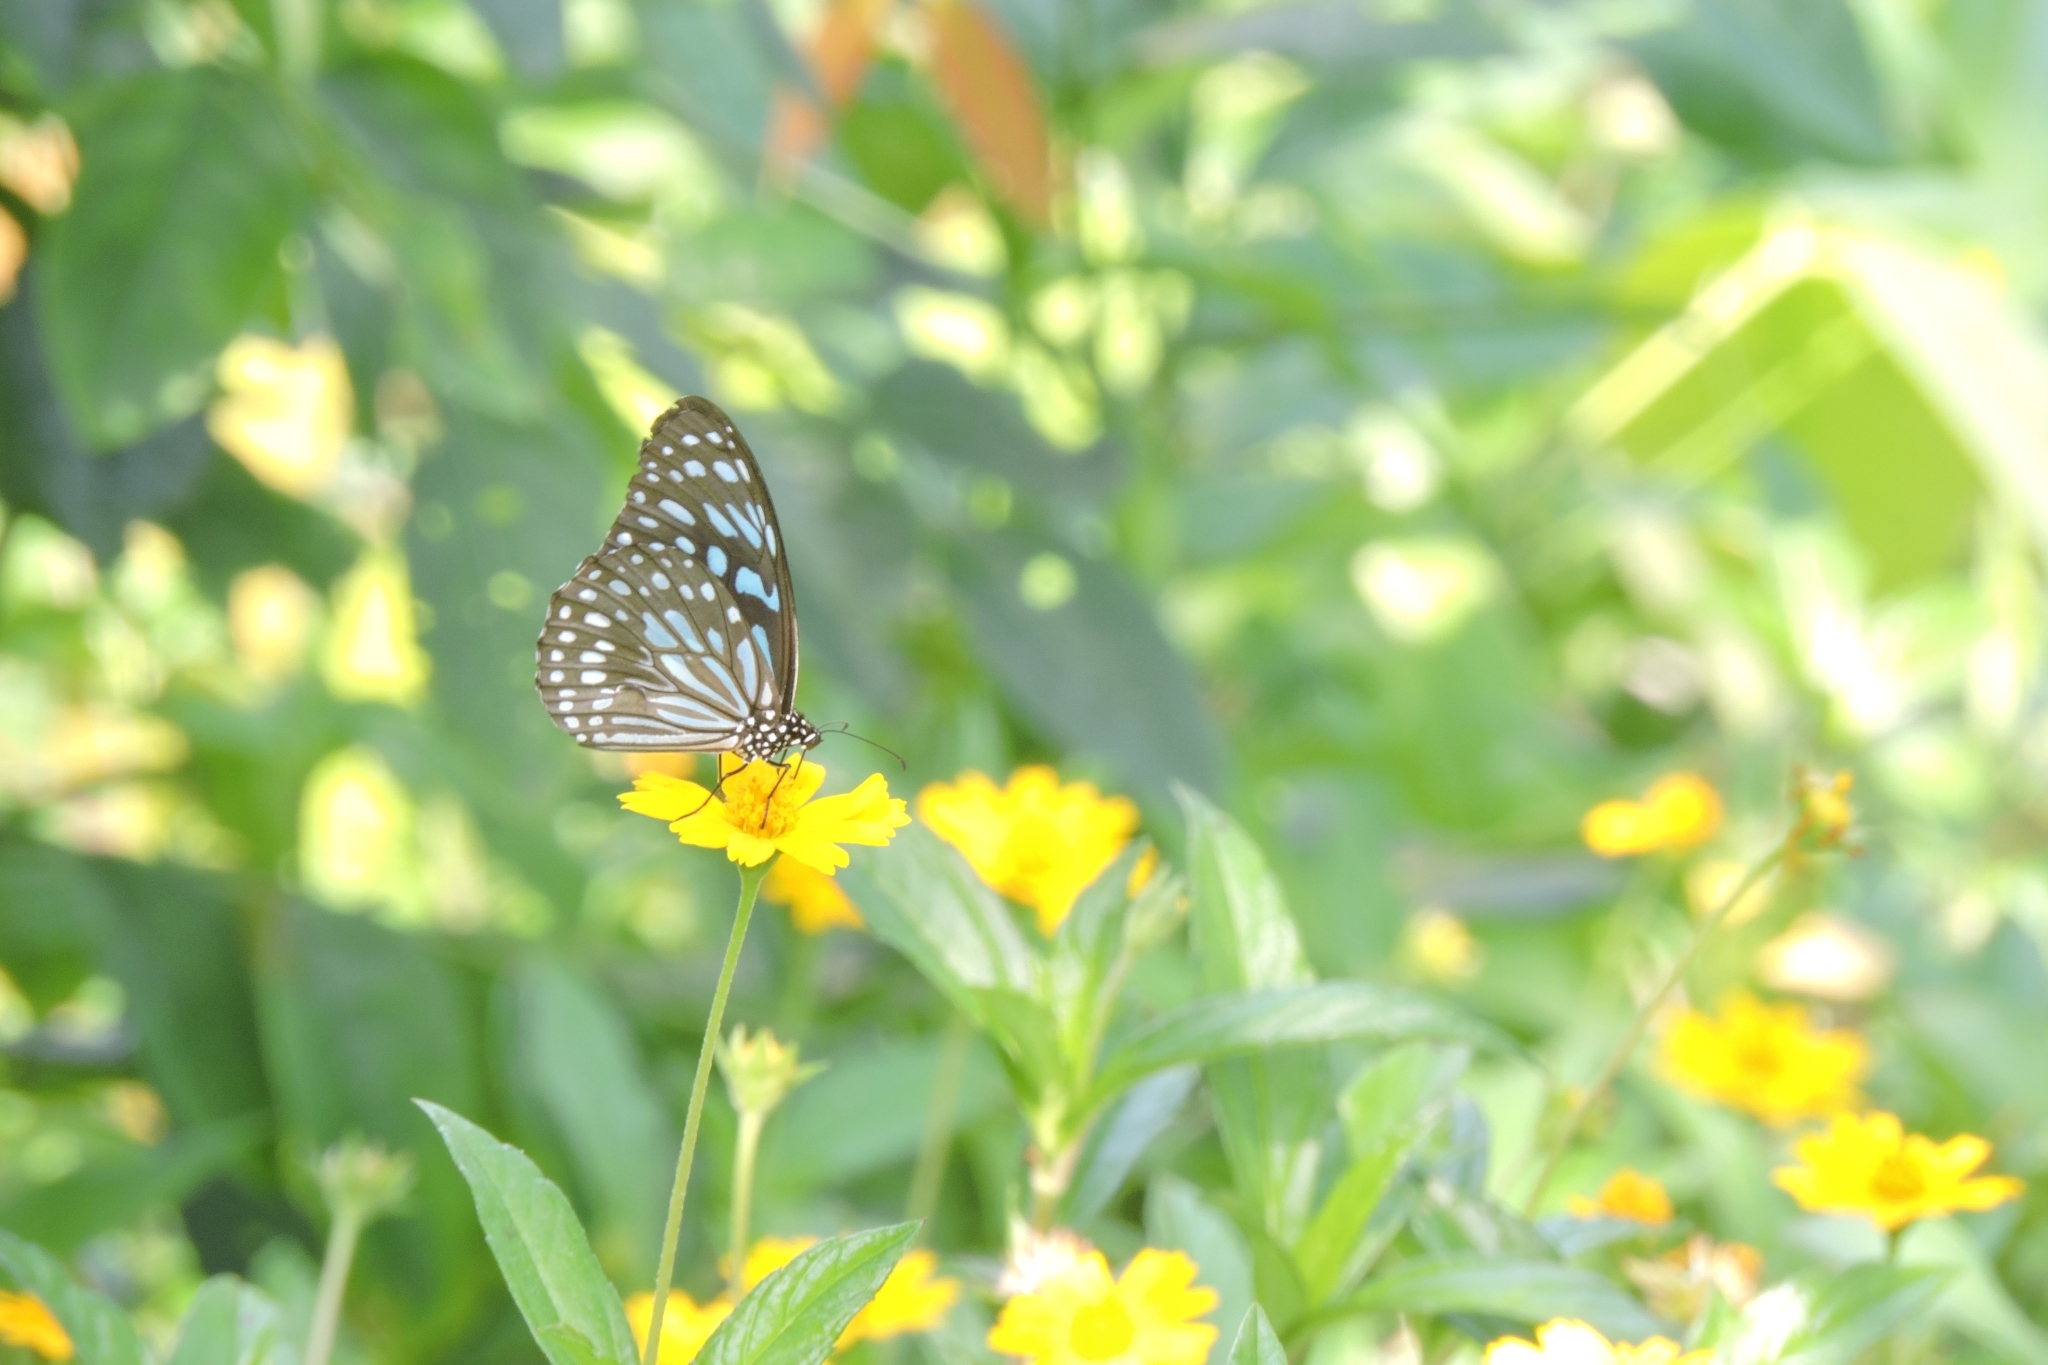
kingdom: Animalia
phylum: Arthropoda
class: Insecta
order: Lepidoptera
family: Nymphalidae
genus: Tirumala
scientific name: Tirumala septentrionis
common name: Dark blue tiger butterfly
